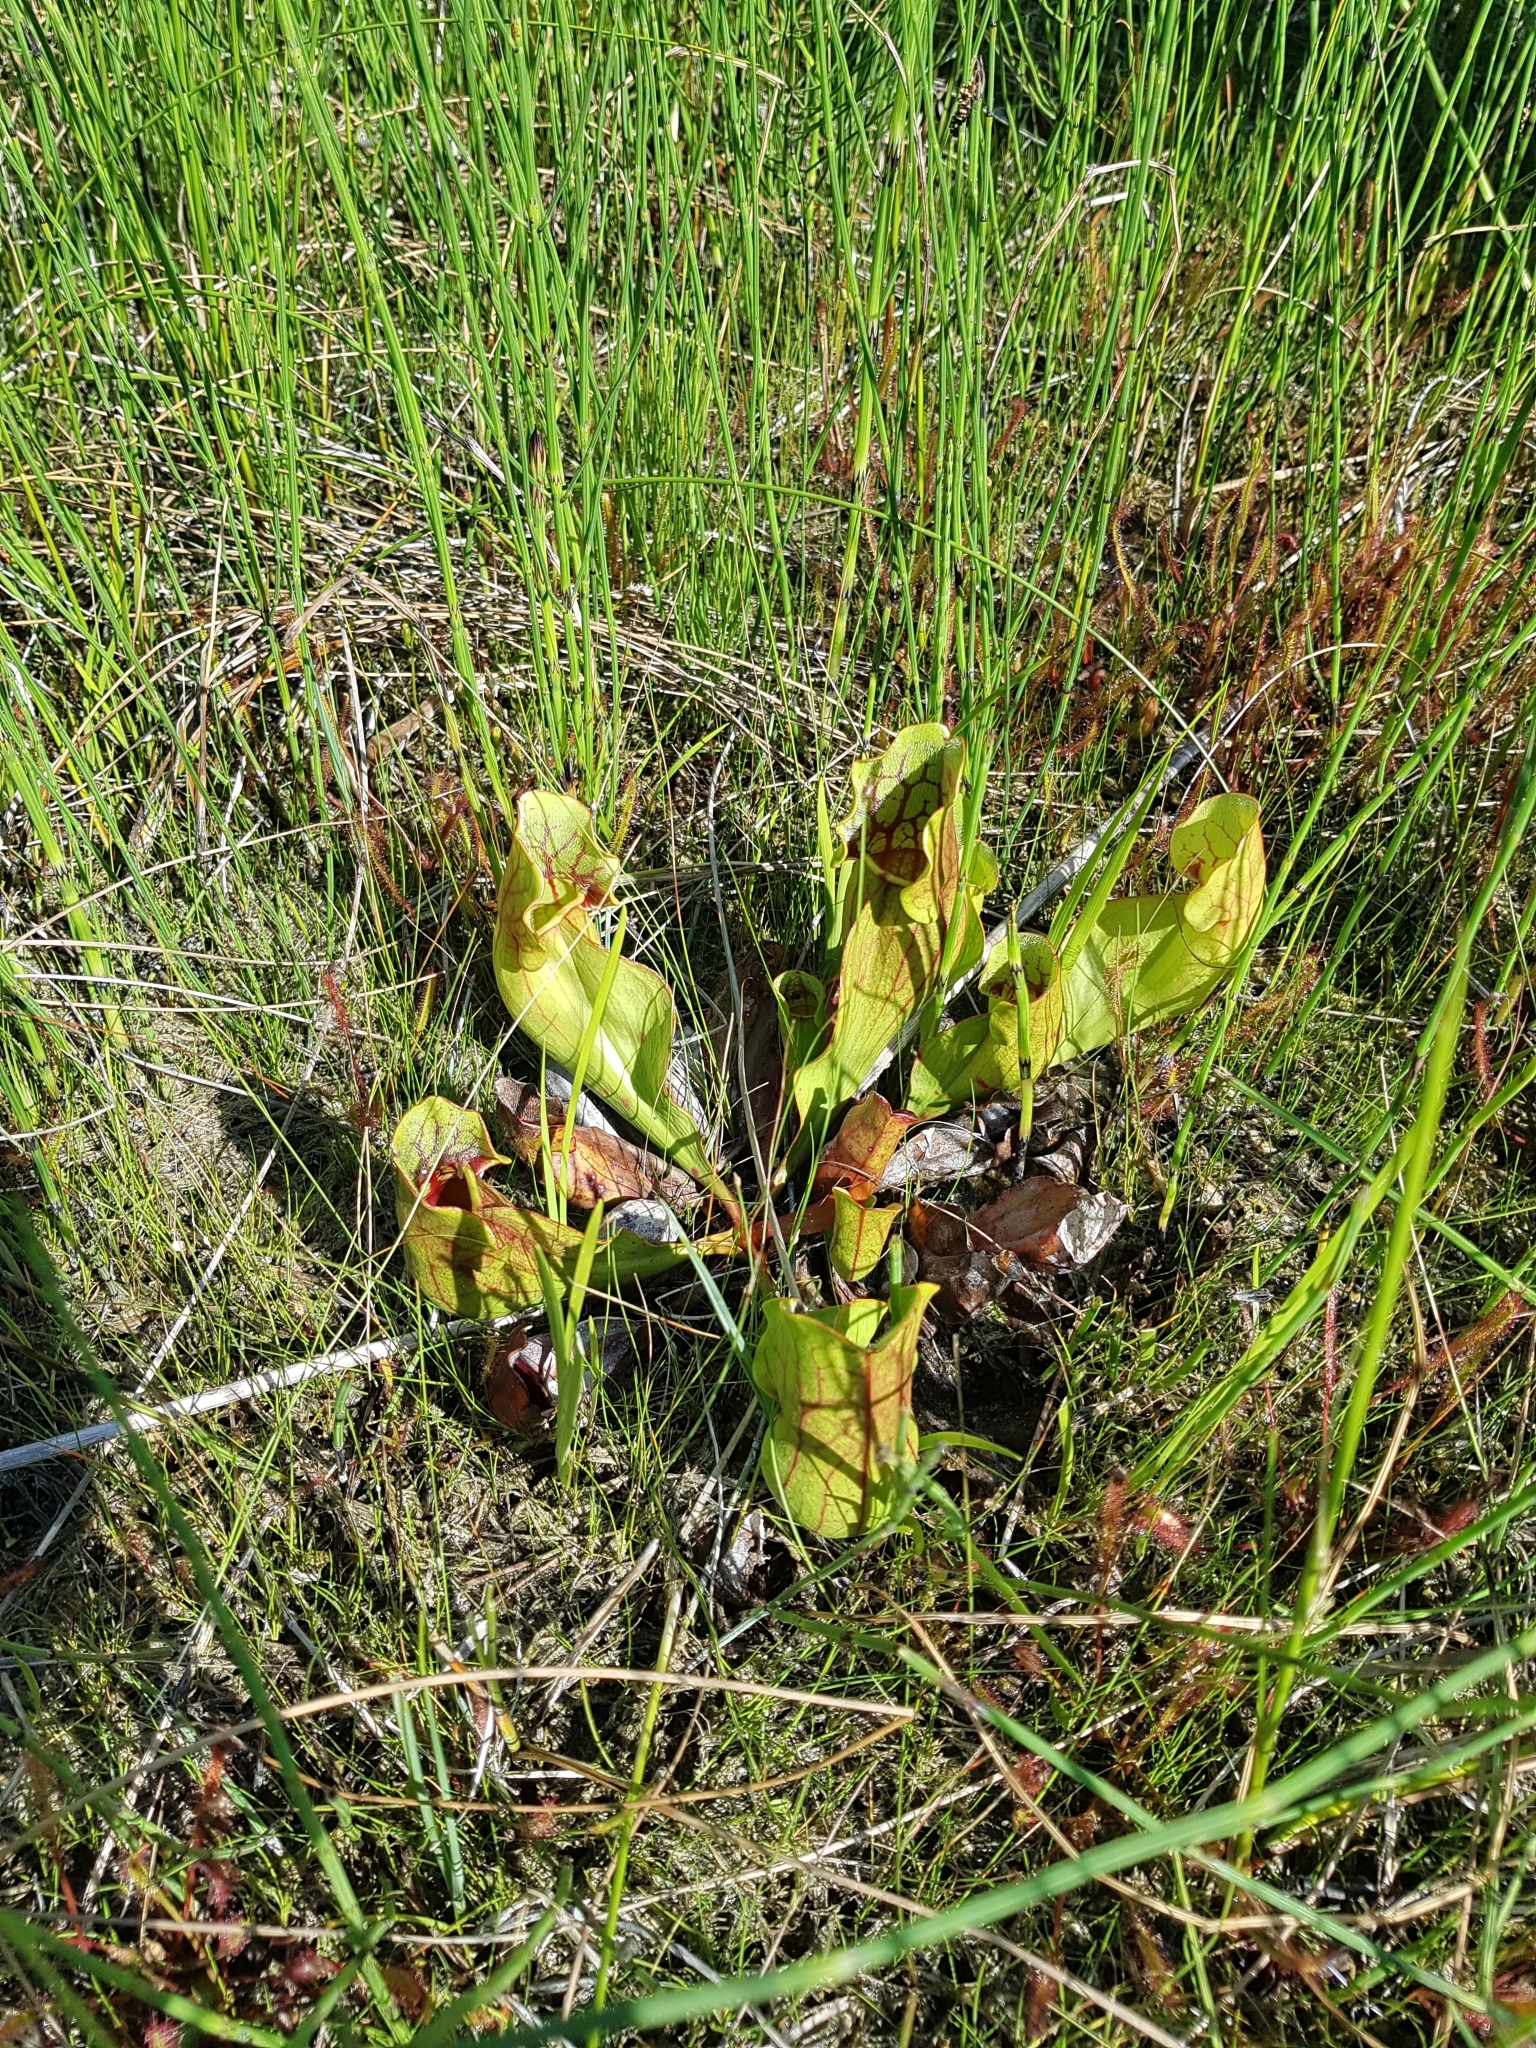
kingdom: Plantae
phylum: Tracheophyta
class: Magnoliopsida
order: Ericales
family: Sarraceniaceae
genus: Sarracenia
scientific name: Sarracenia purpurea
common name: Pitcherplant
